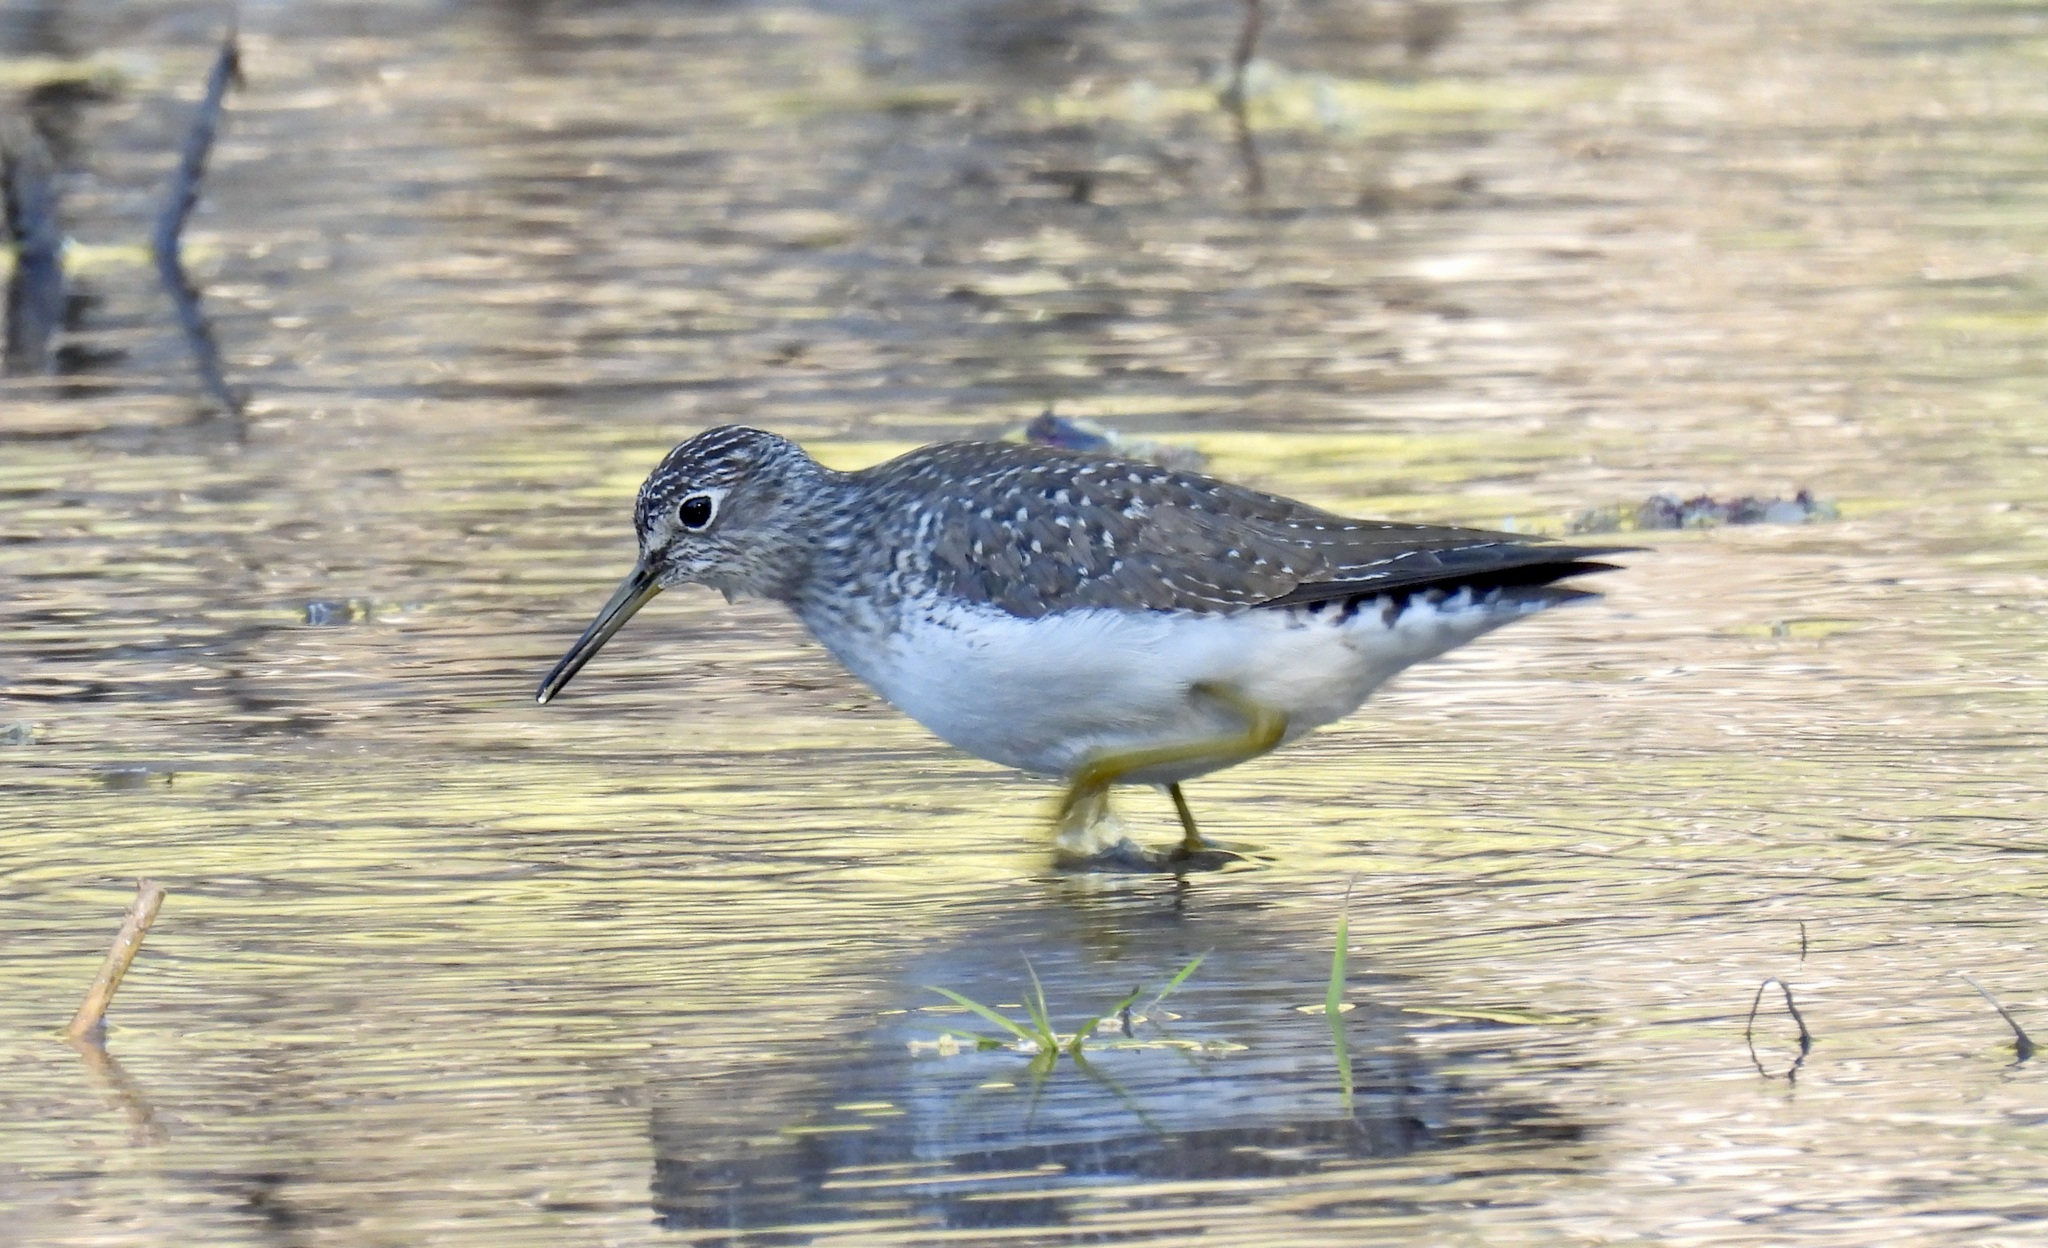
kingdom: Animalia
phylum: Chordata
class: Aves
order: Charadriiformes
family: Scolopacidae
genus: Tringa
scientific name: Tringa solitaria
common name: Solitary sandpiper
